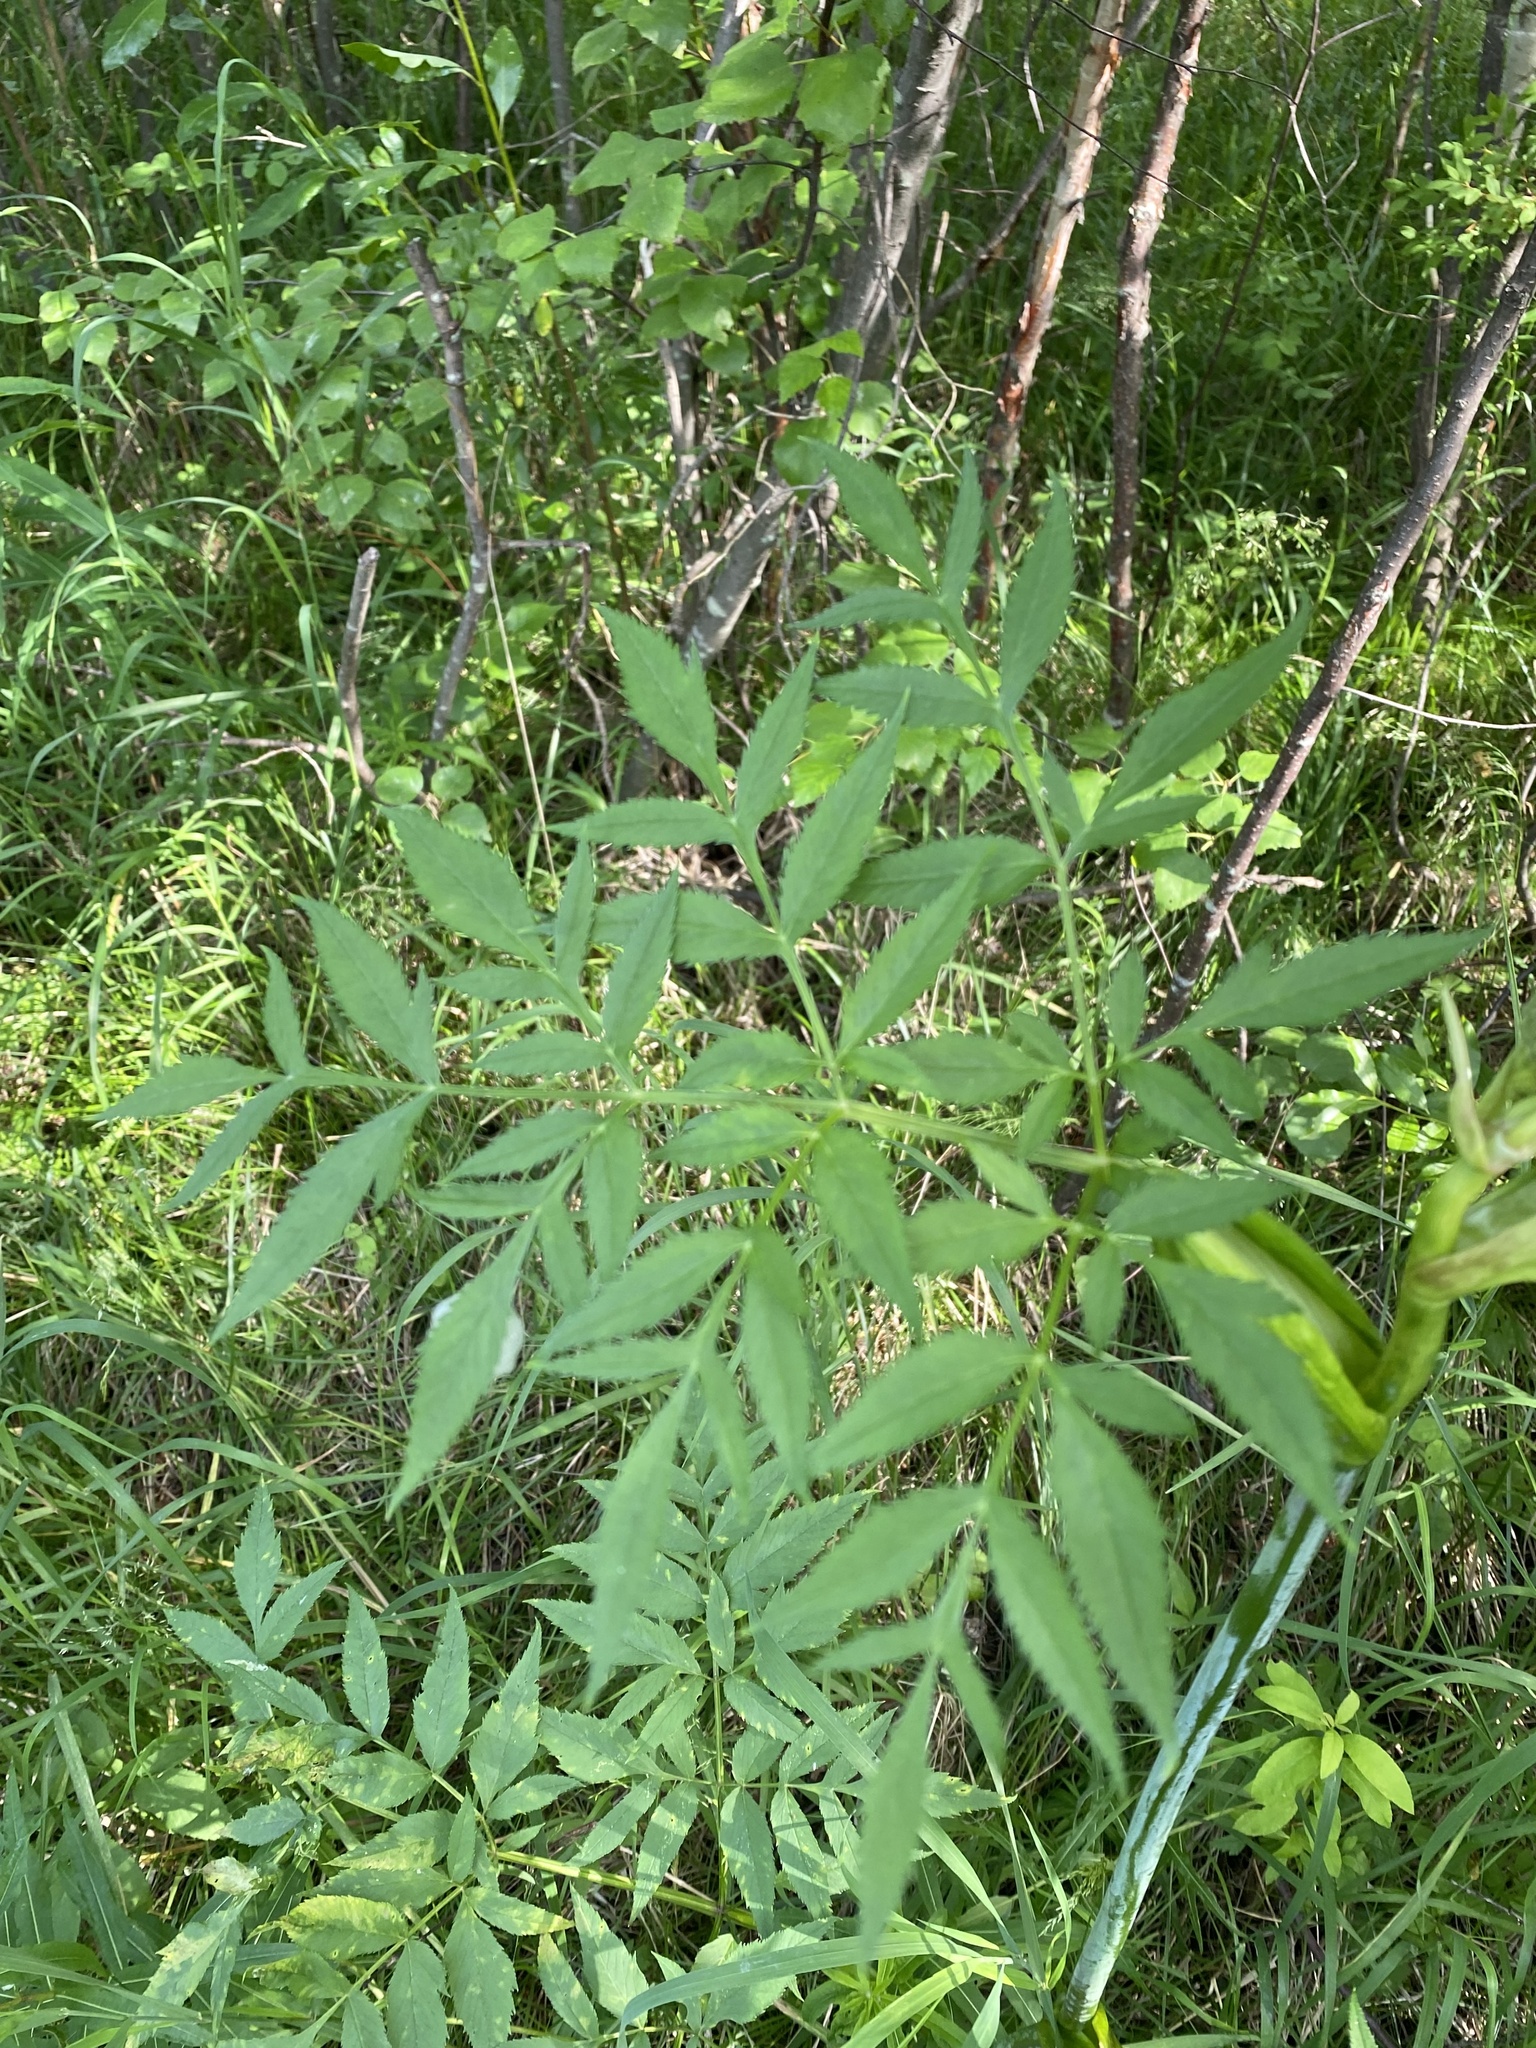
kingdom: Plantae
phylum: Tracheophyta
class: Magnoliopsida
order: Apiales
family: Apiaceae
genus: Angelica
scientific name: Angelica sylvestris
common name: Wild angelica
